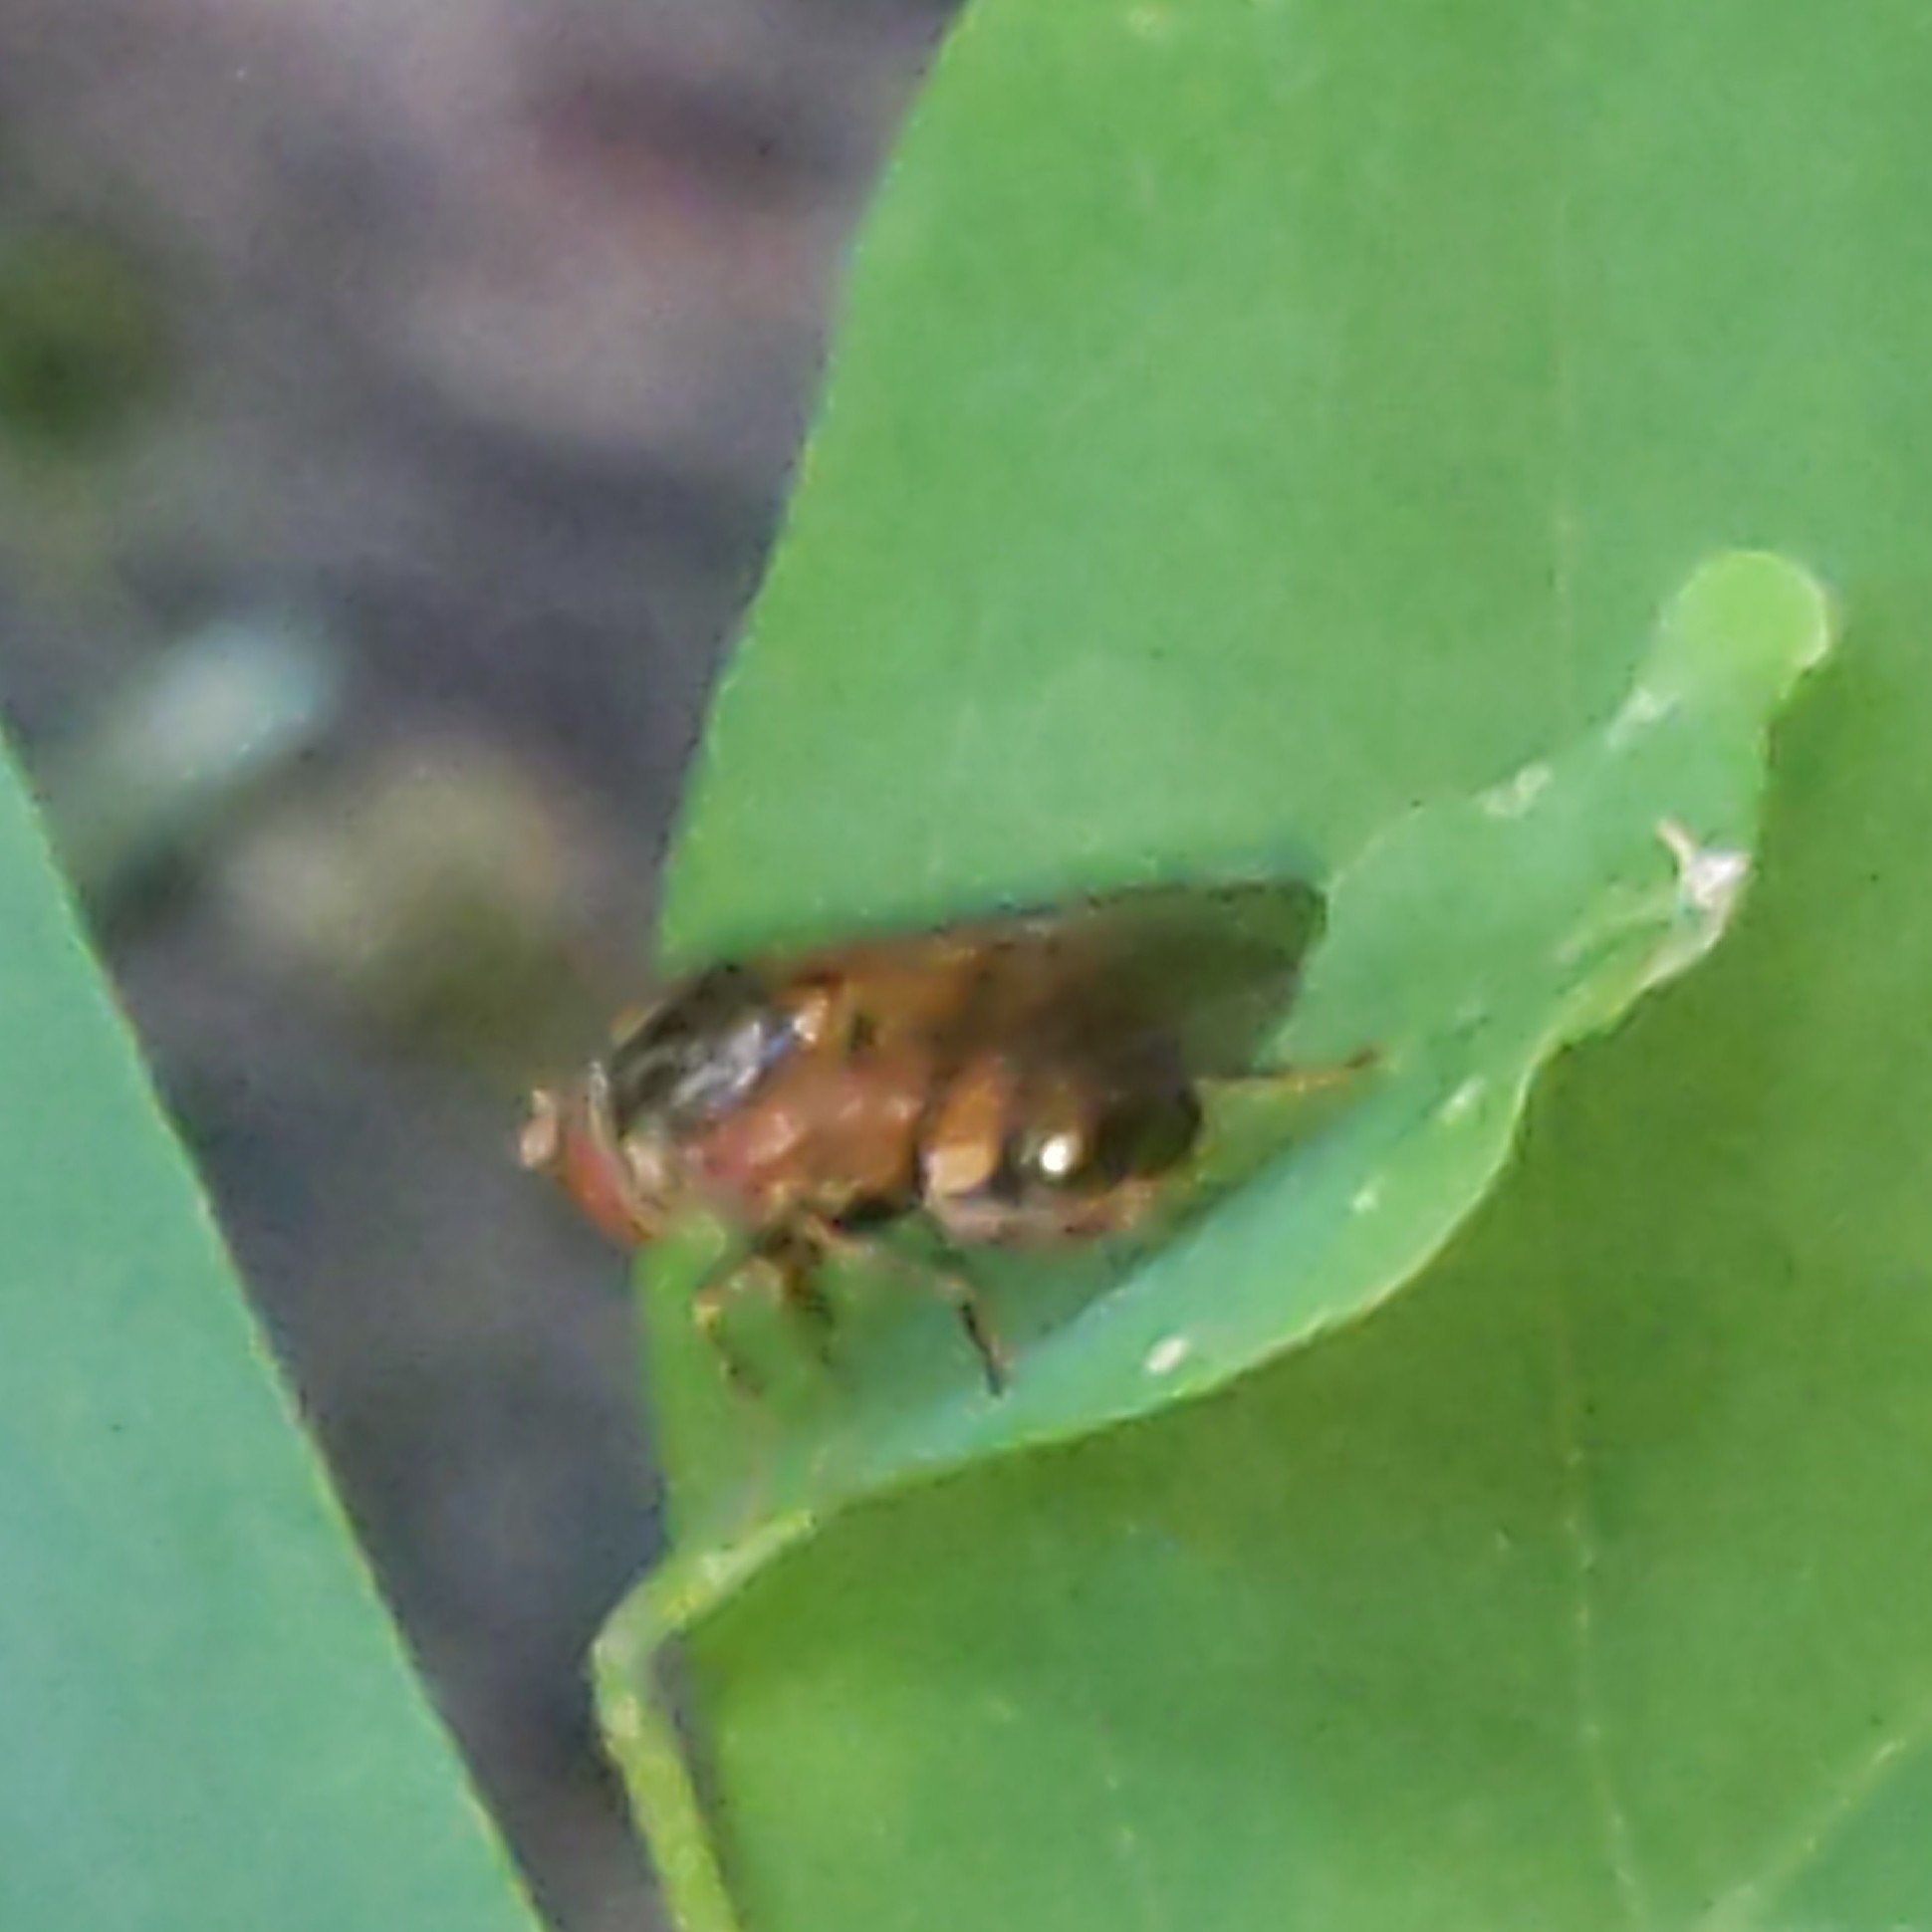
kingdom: Animalia
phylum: Arthropoda
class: Insecta
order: Diptera
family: Syrphidae
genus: Rhingia
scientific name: Rhingia nasica
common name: American snout fly
